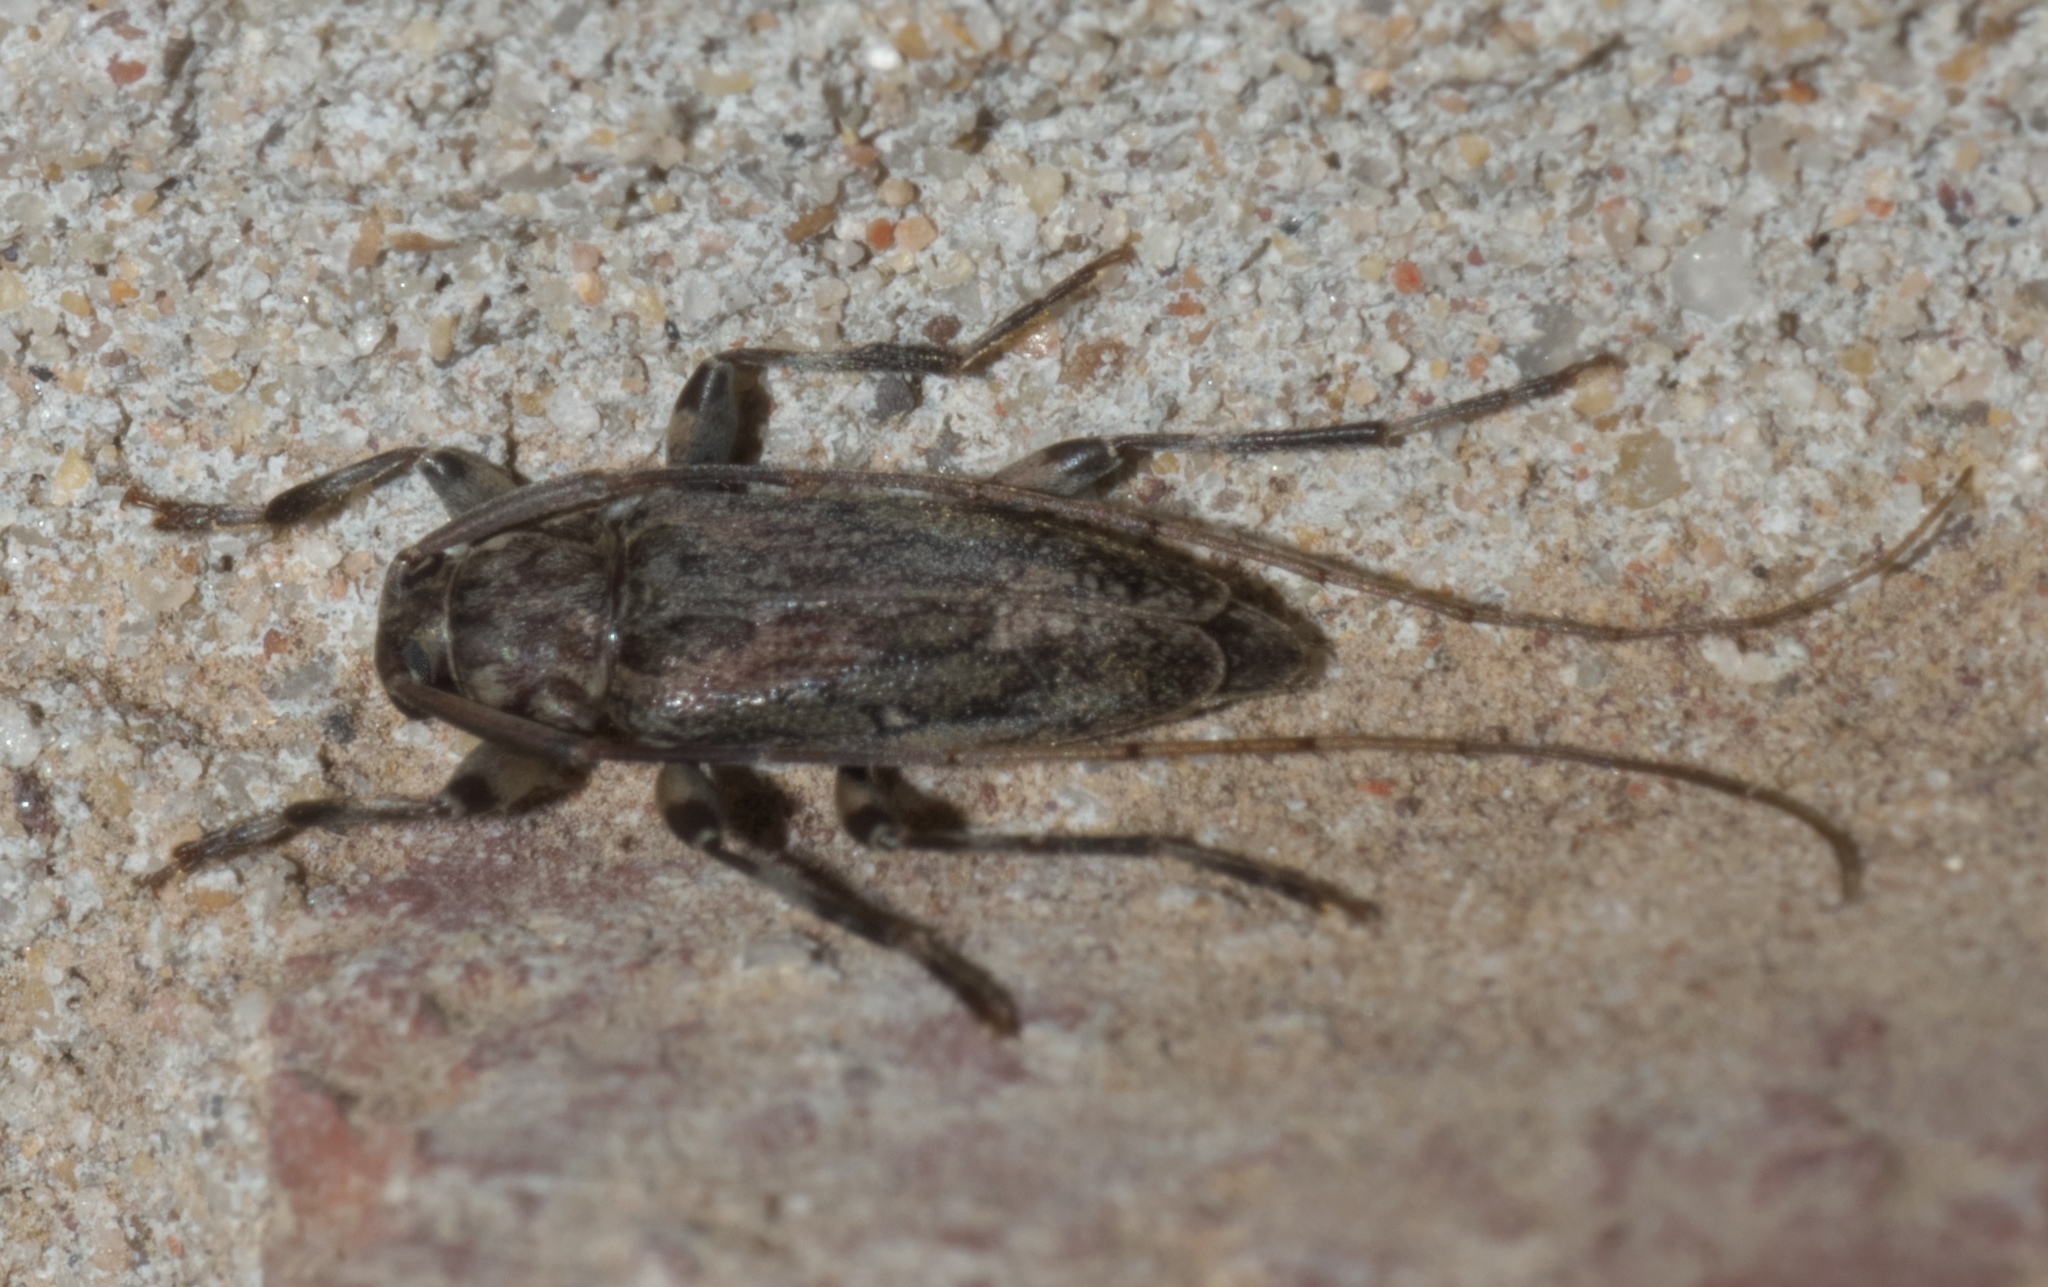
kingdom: Animalia
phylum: Arthropoda
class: Insecta
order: Coleoptera
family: Cerambycidae
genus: Lepturges
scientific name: Lepturges confluens
